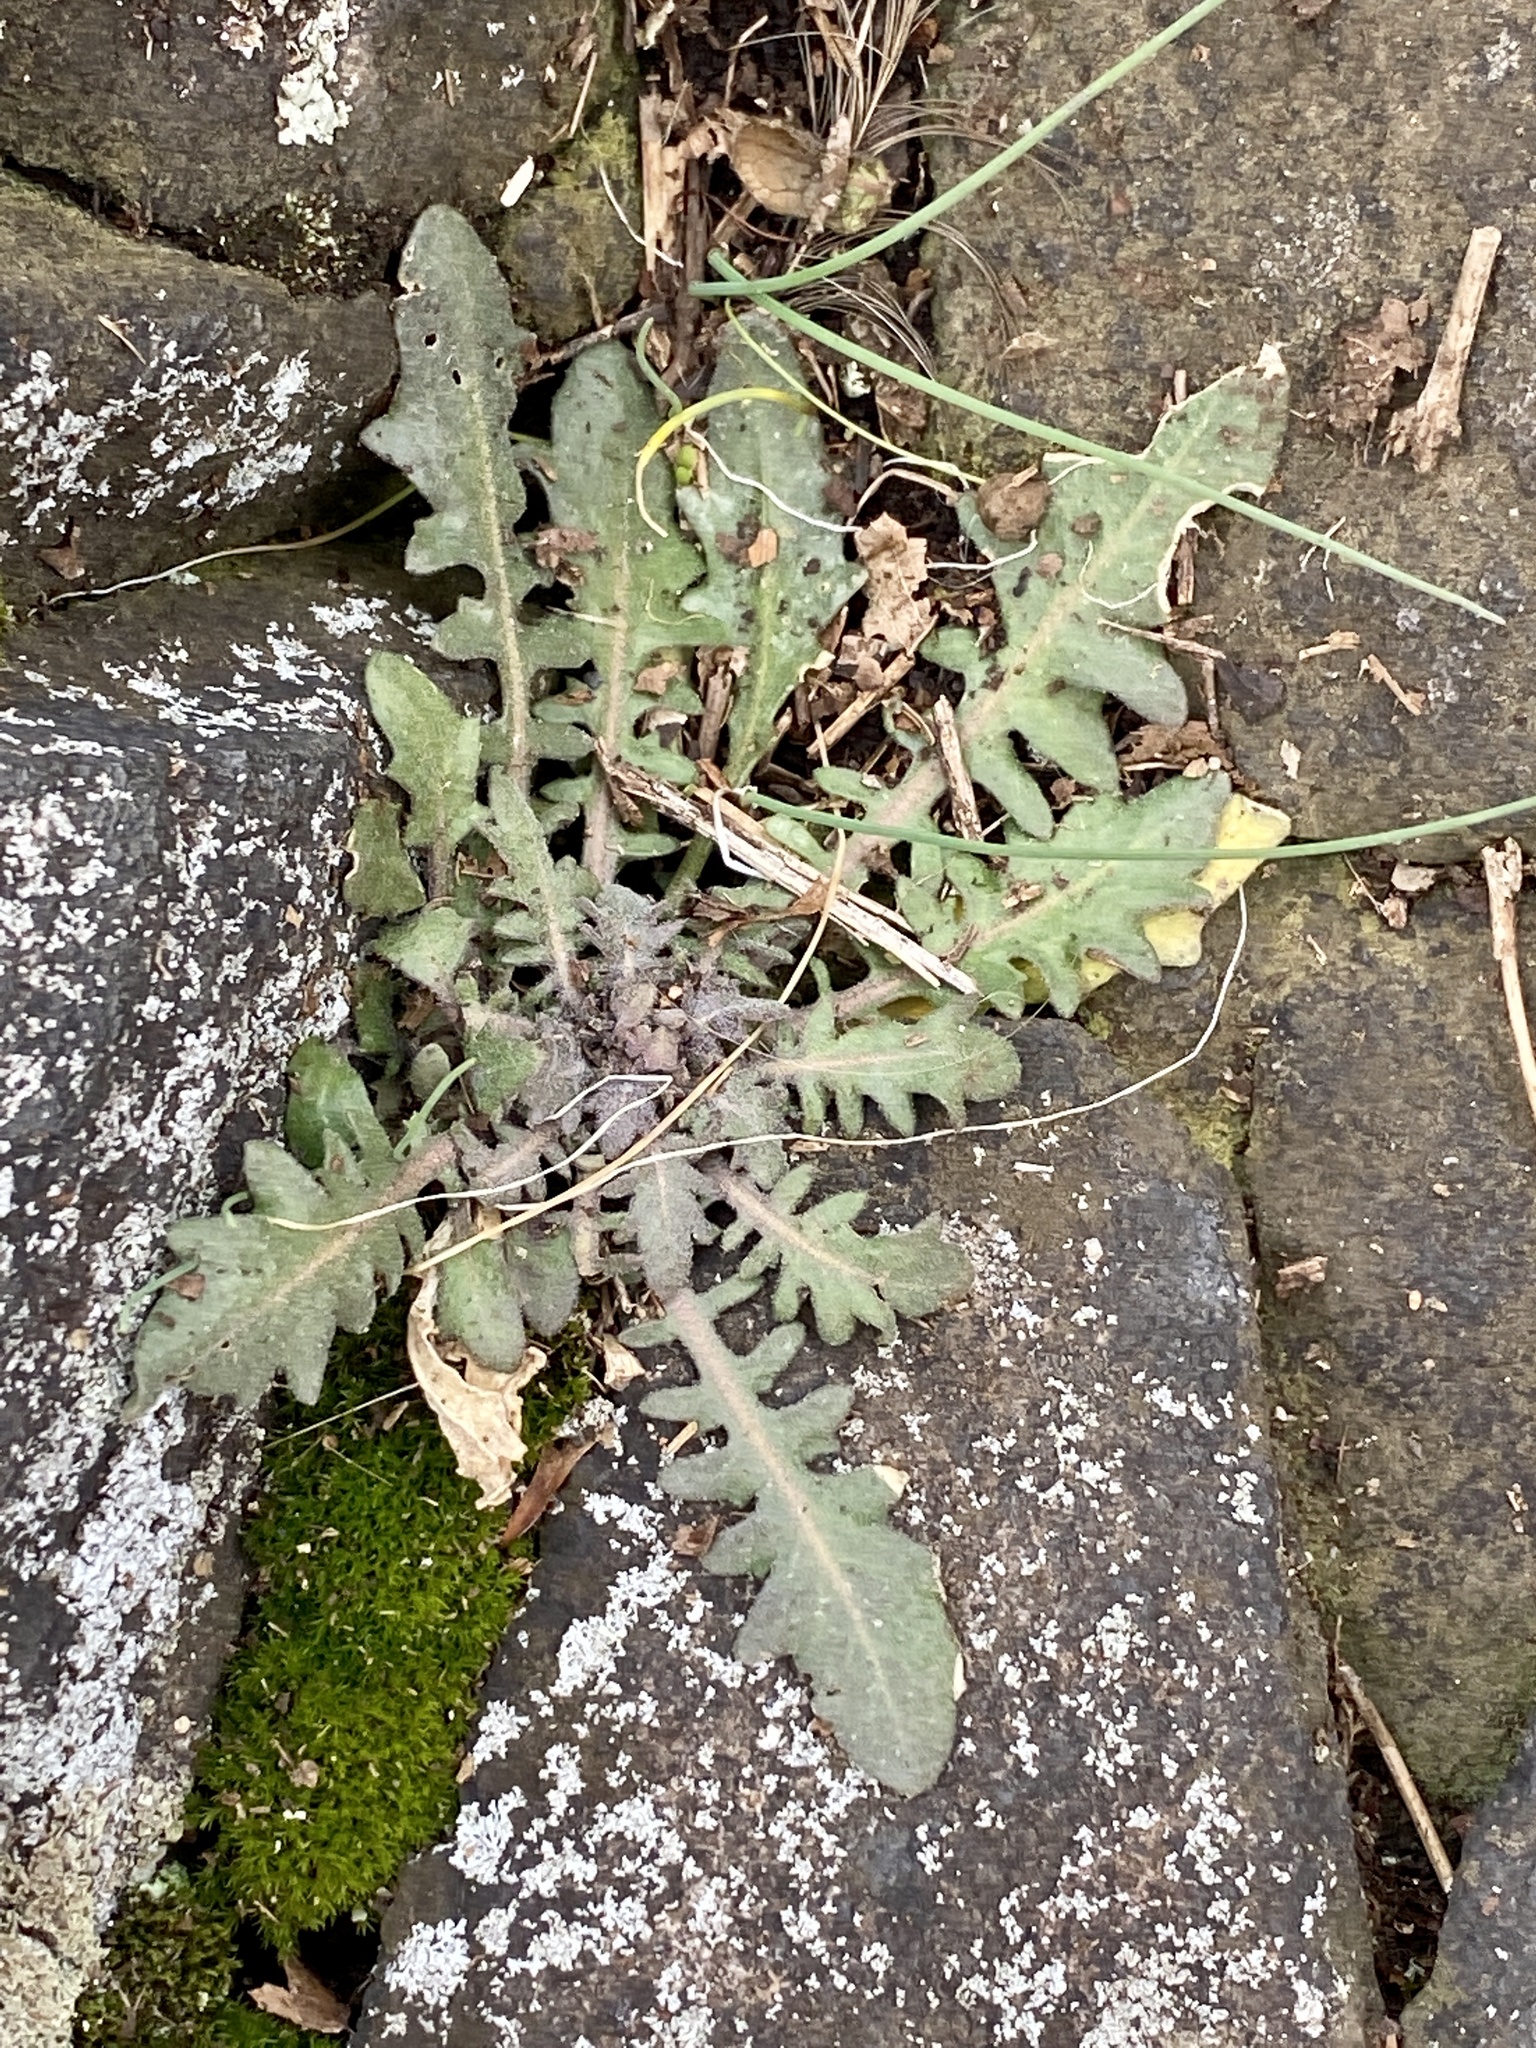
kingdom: Plantae
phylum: Tracheophyta
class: Magnoliopsida
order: Brassicales
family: Brassicaceae
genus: Arabidopsis
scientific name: Arabidopsis lyrata
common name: Lyrate rockcress
